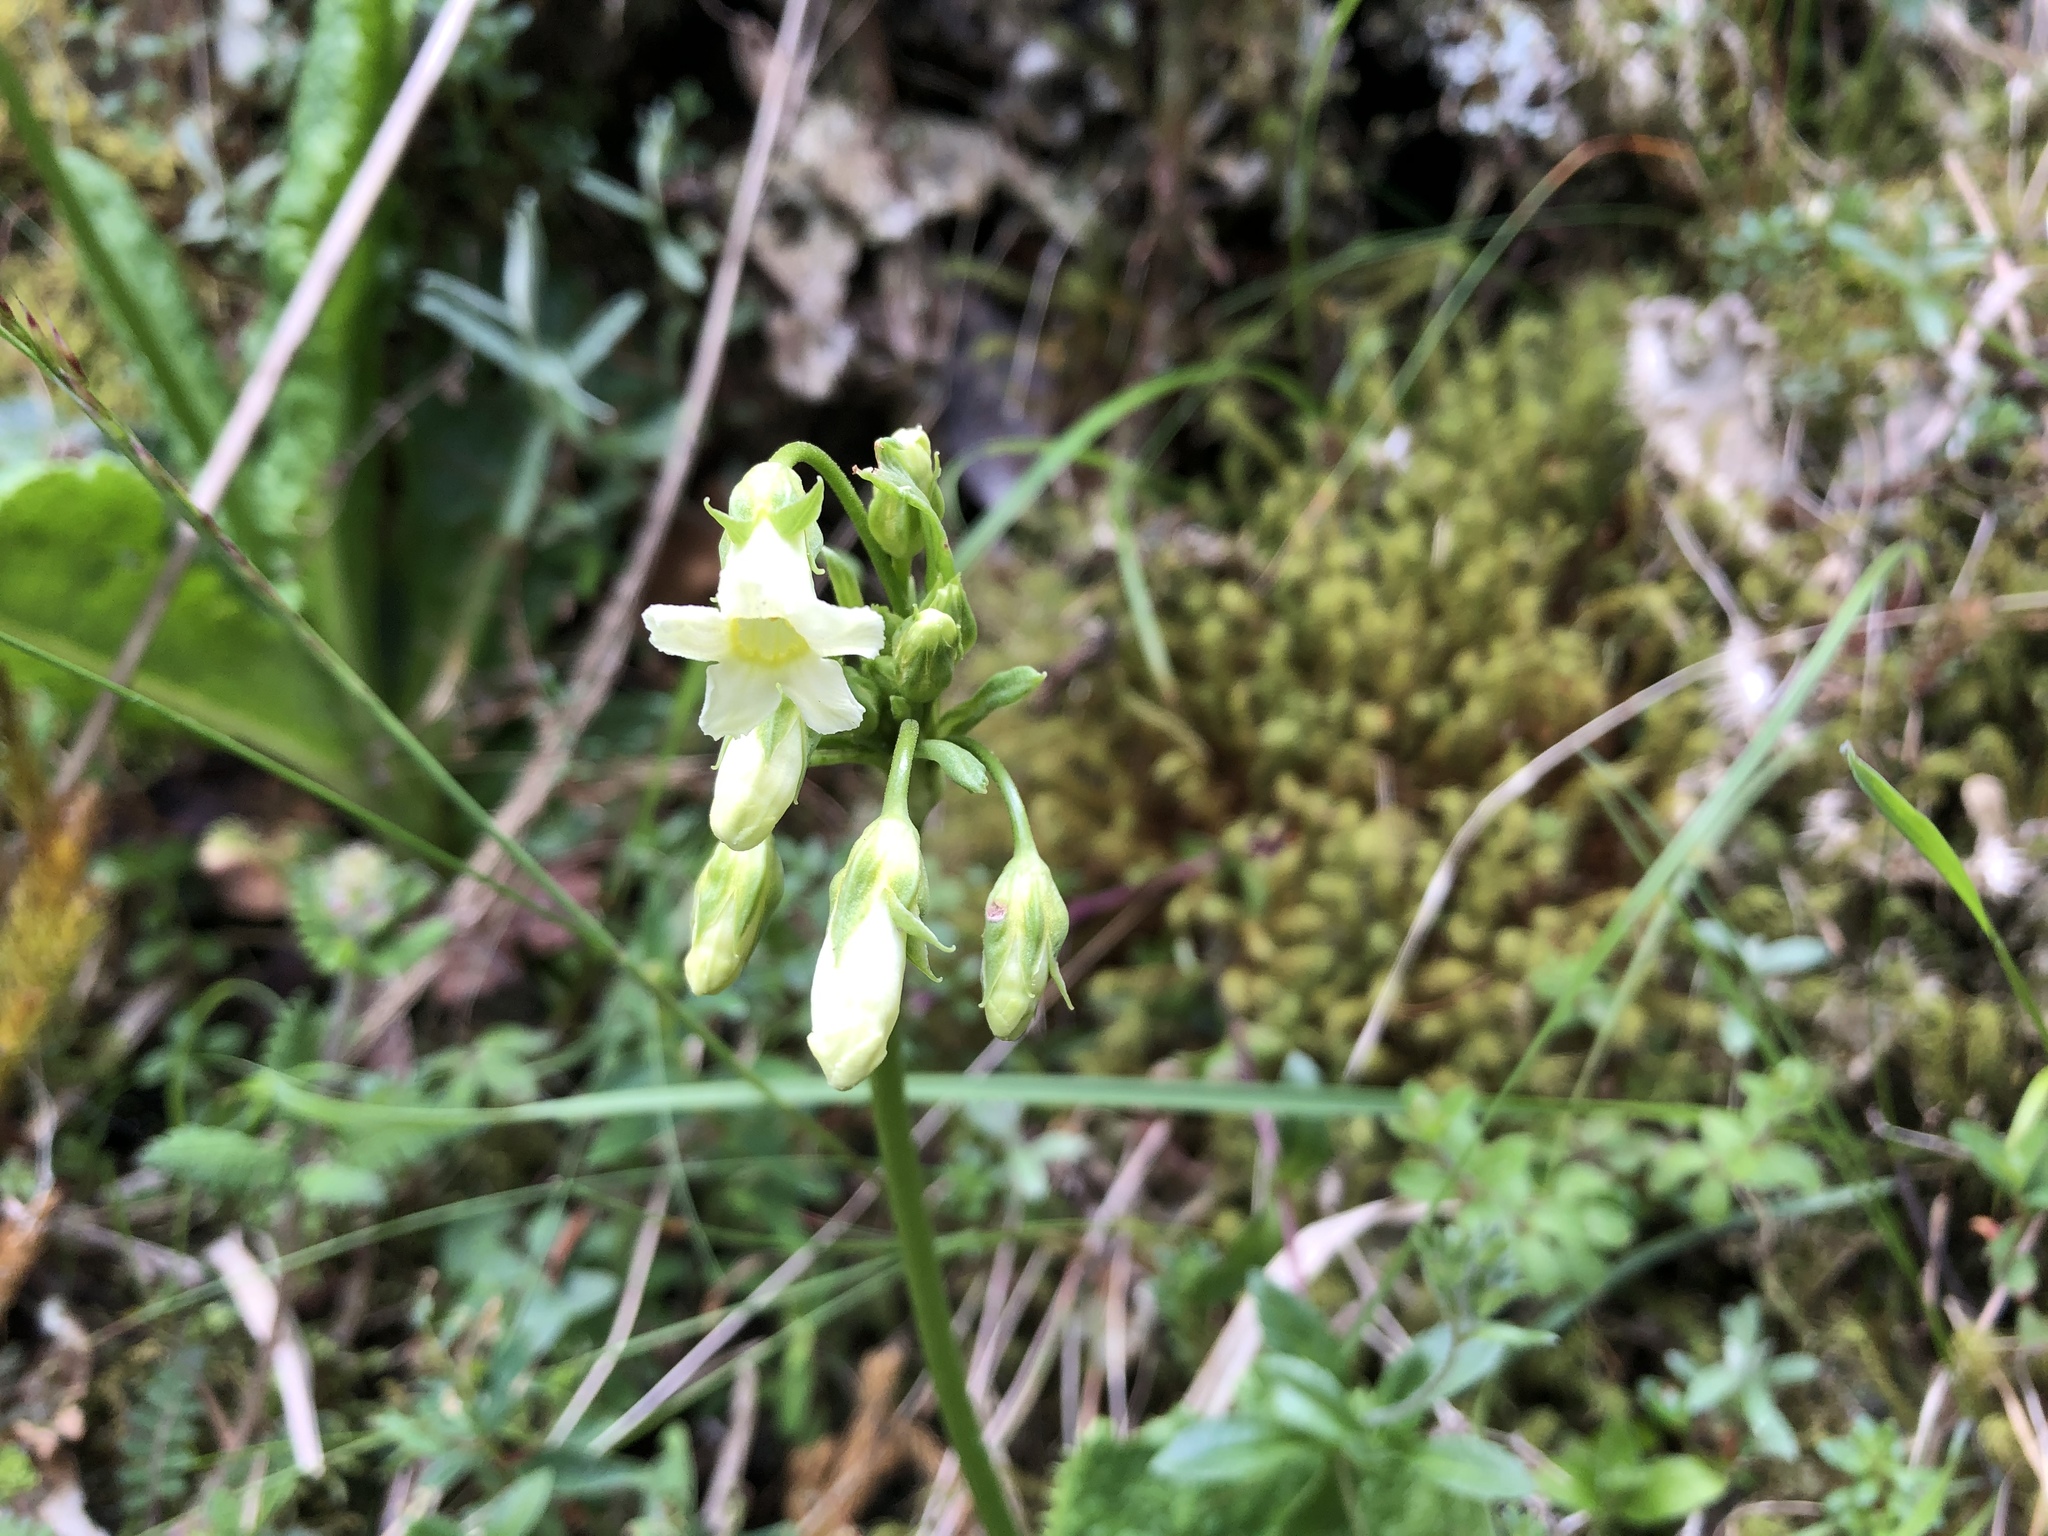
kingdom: Plantae
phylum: Tracheophyta
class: Magnoliopsida
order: Ericales
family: Primulaceae
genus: Primula
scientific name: Primula miyabeana
